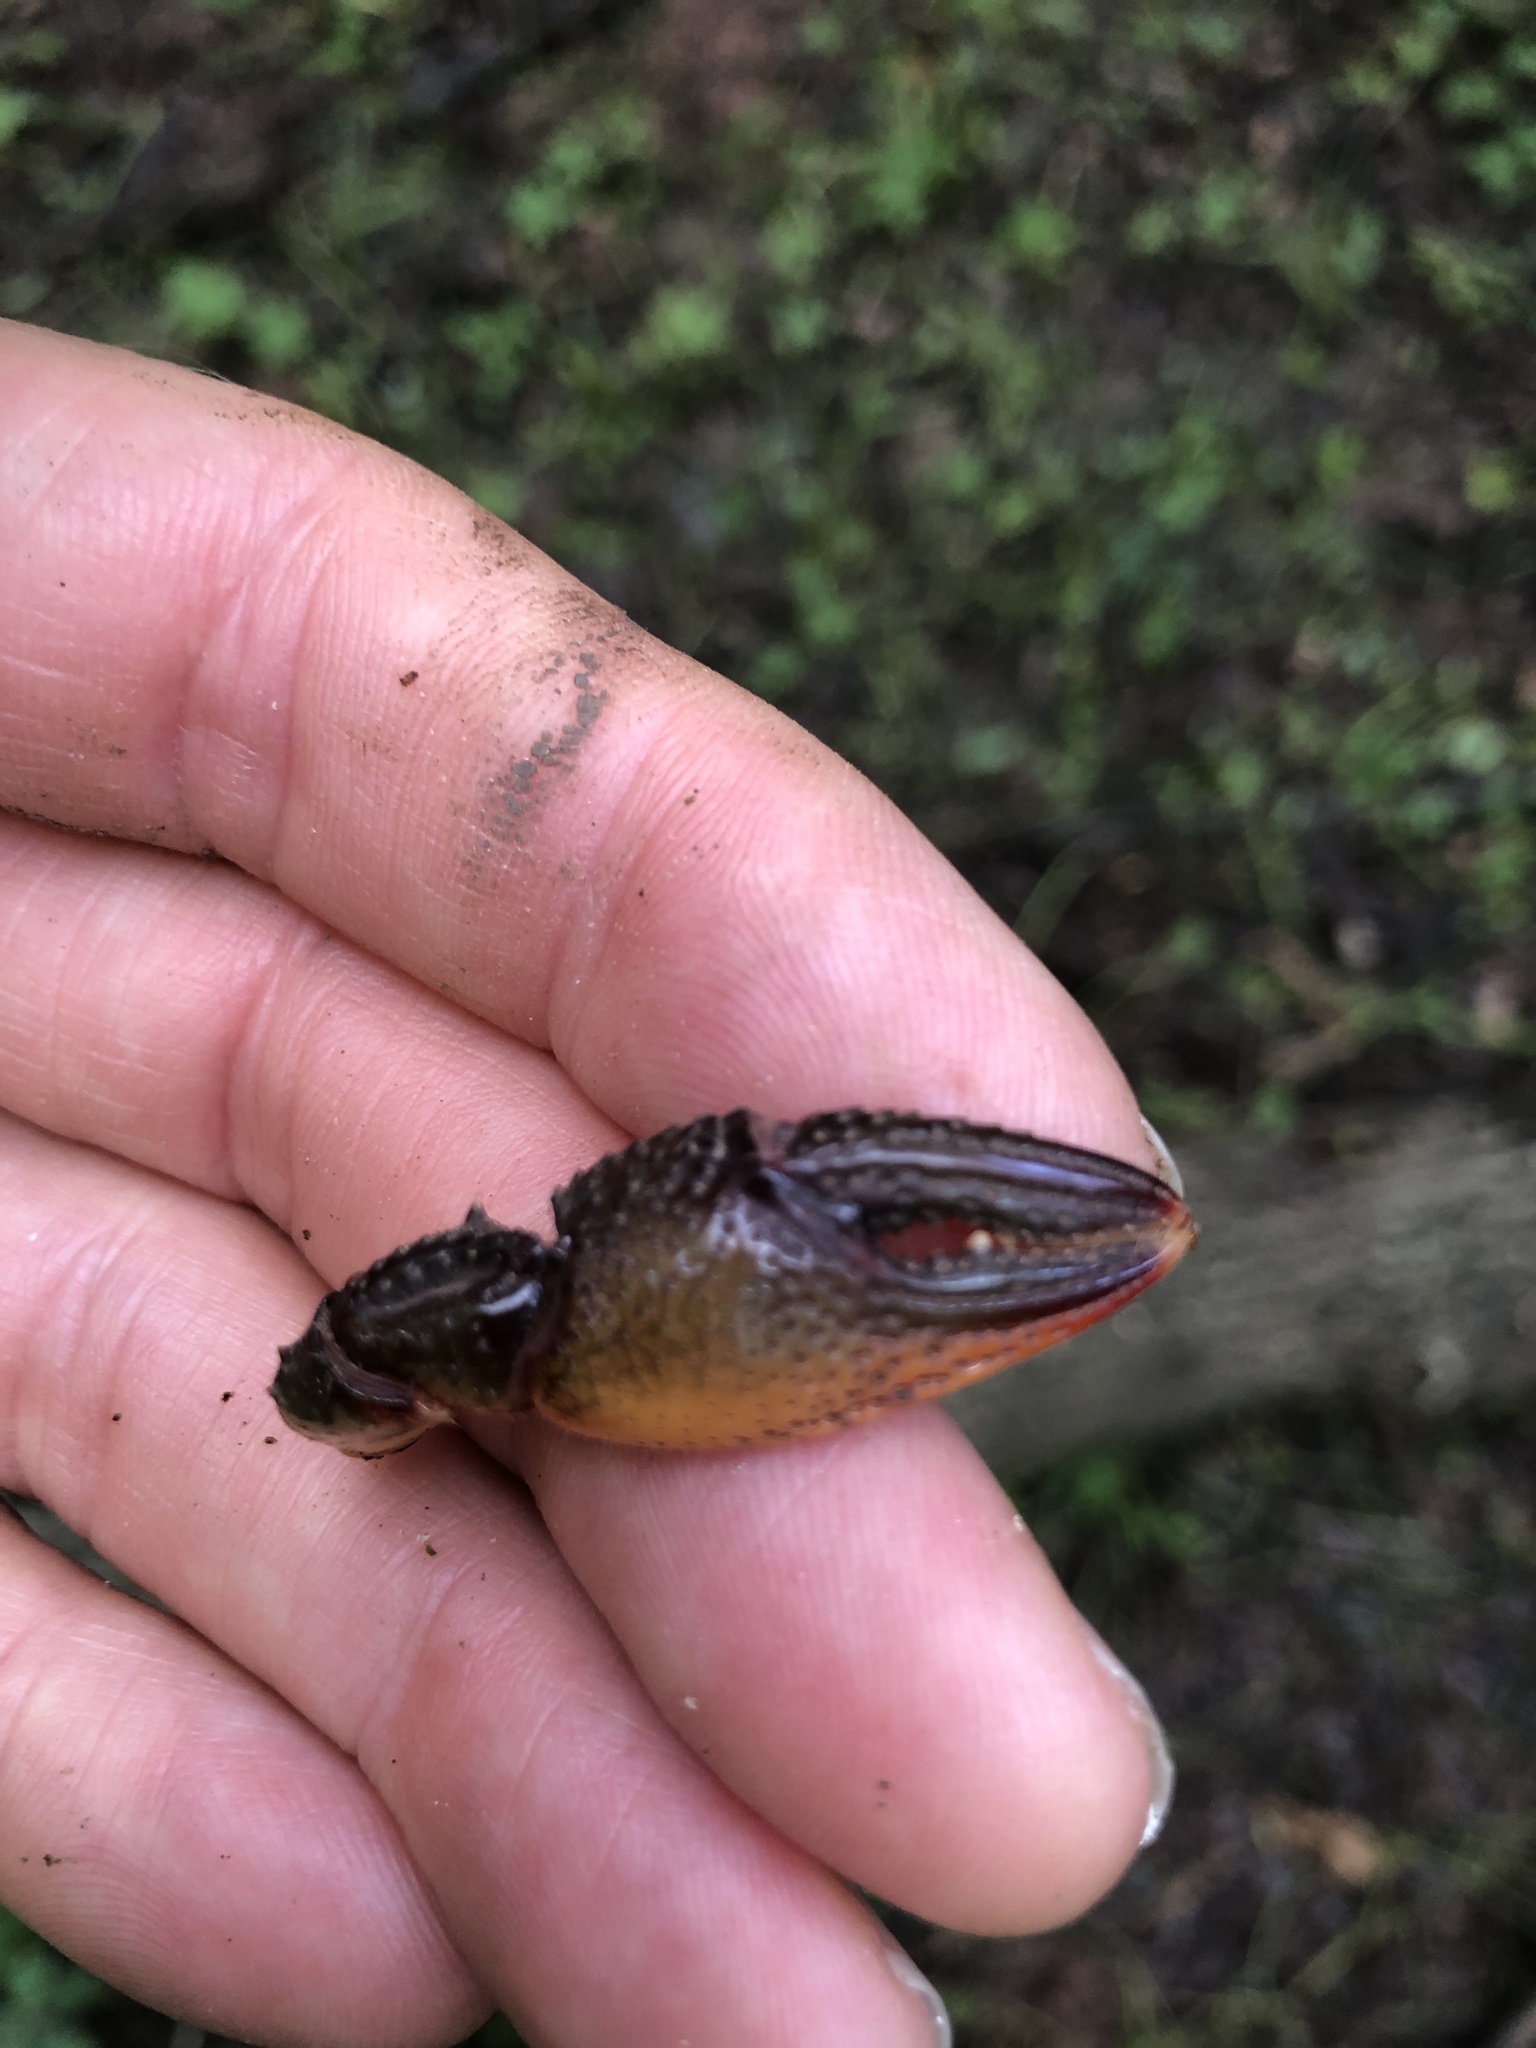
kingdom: Animalia
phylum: Arthropoda
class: Malacostraca
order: Decapoda
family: Cambaridae
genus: Lacunicambarus
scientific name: Lacunicambarus ludovicianus
